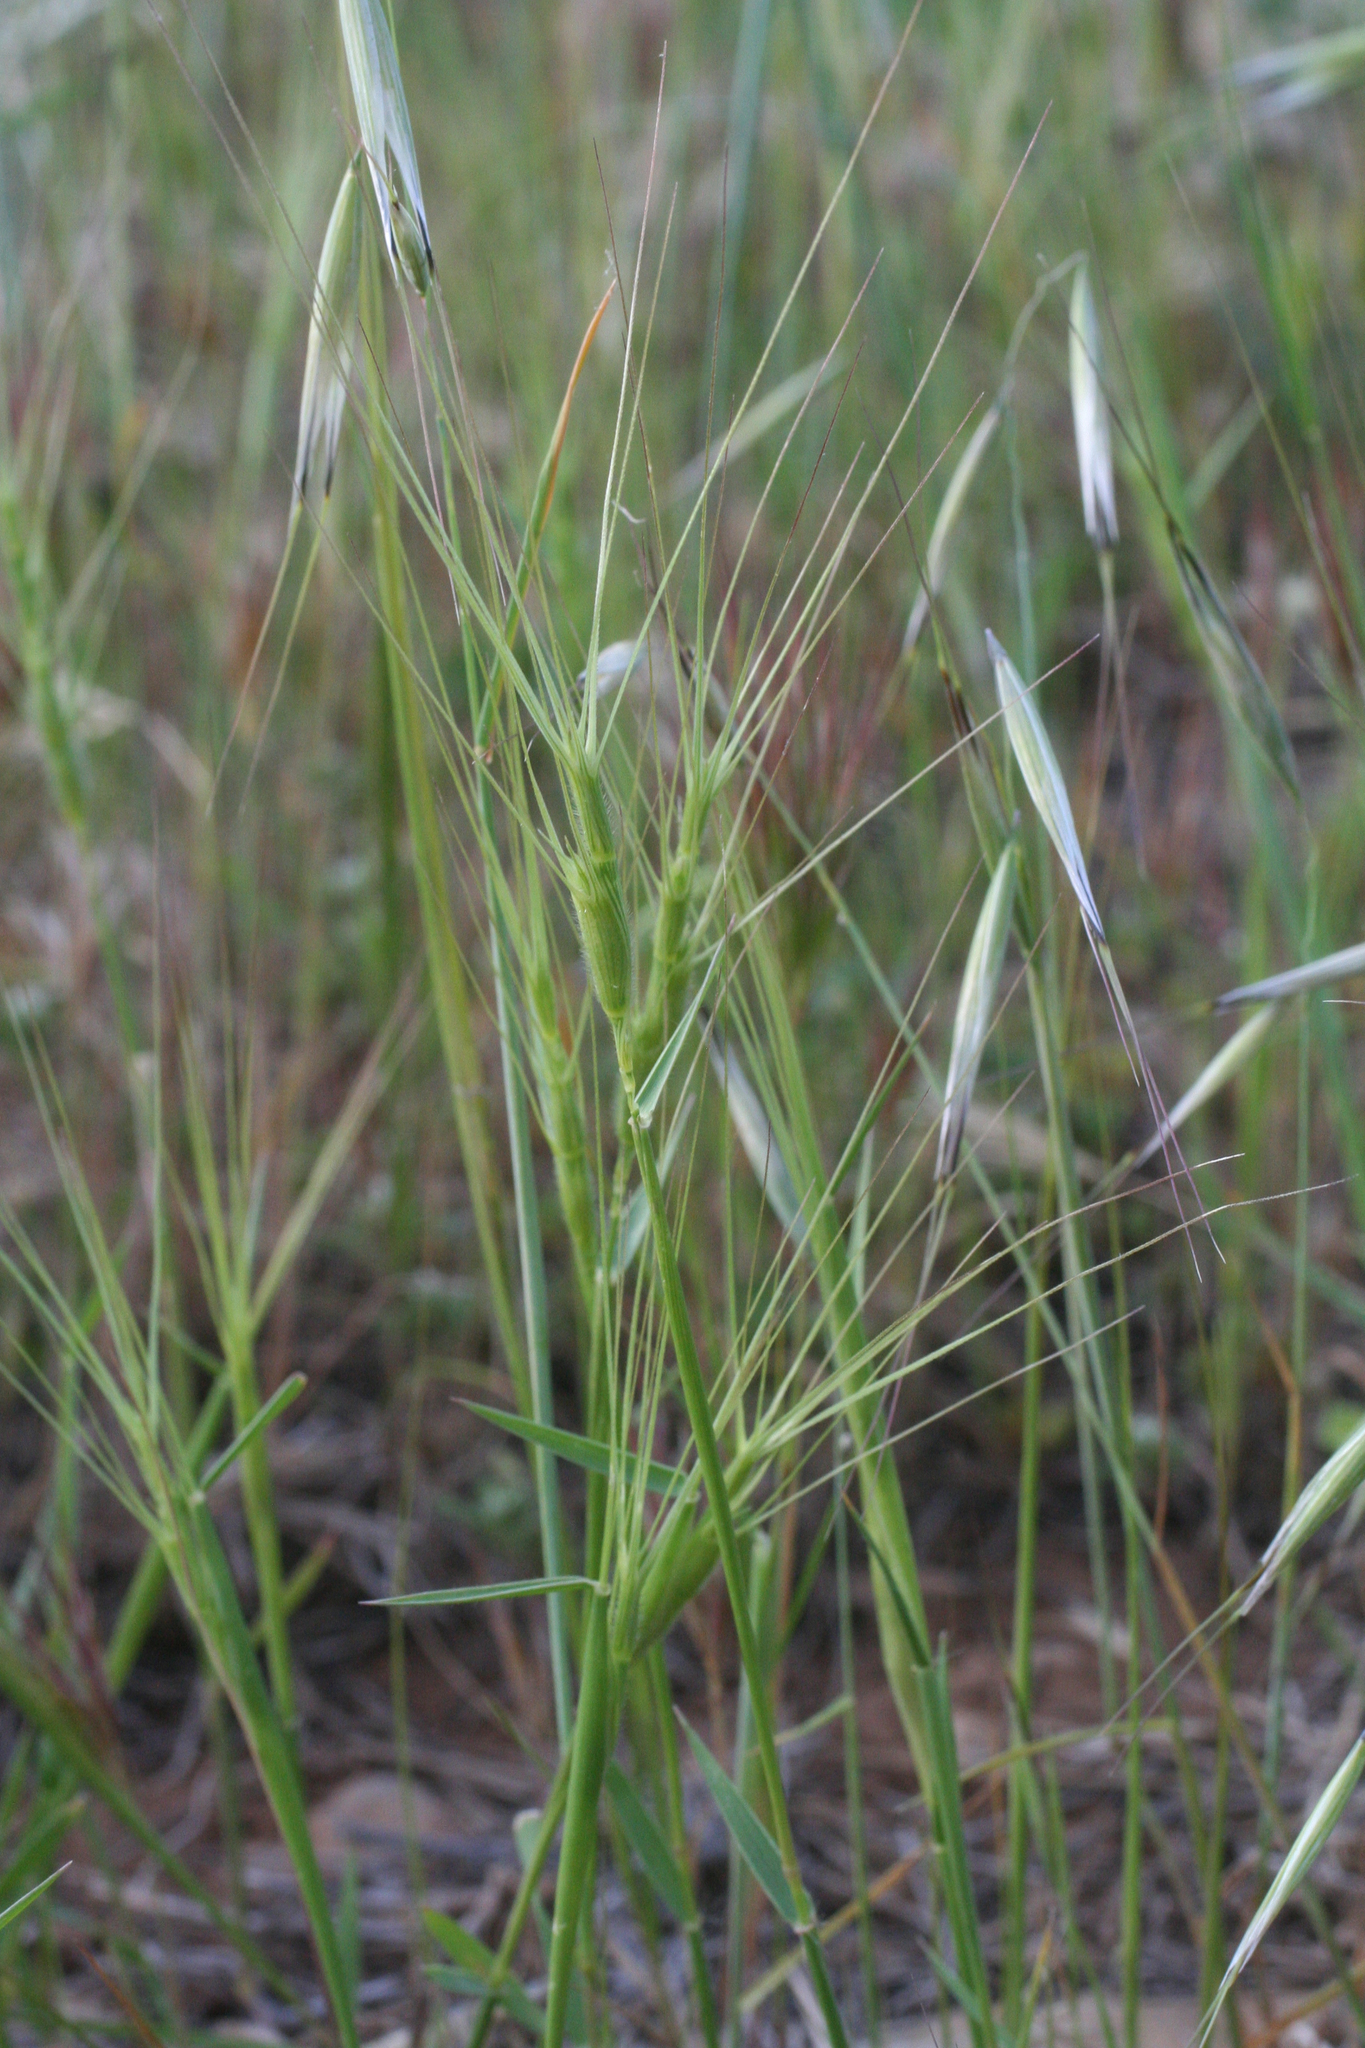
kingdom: Plantae
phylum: Tracheophyta
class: Liliopsida
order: Poales
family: Poaceae
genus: Aegilops
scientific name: Aegilops triuncialis
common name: Barb goat grass
